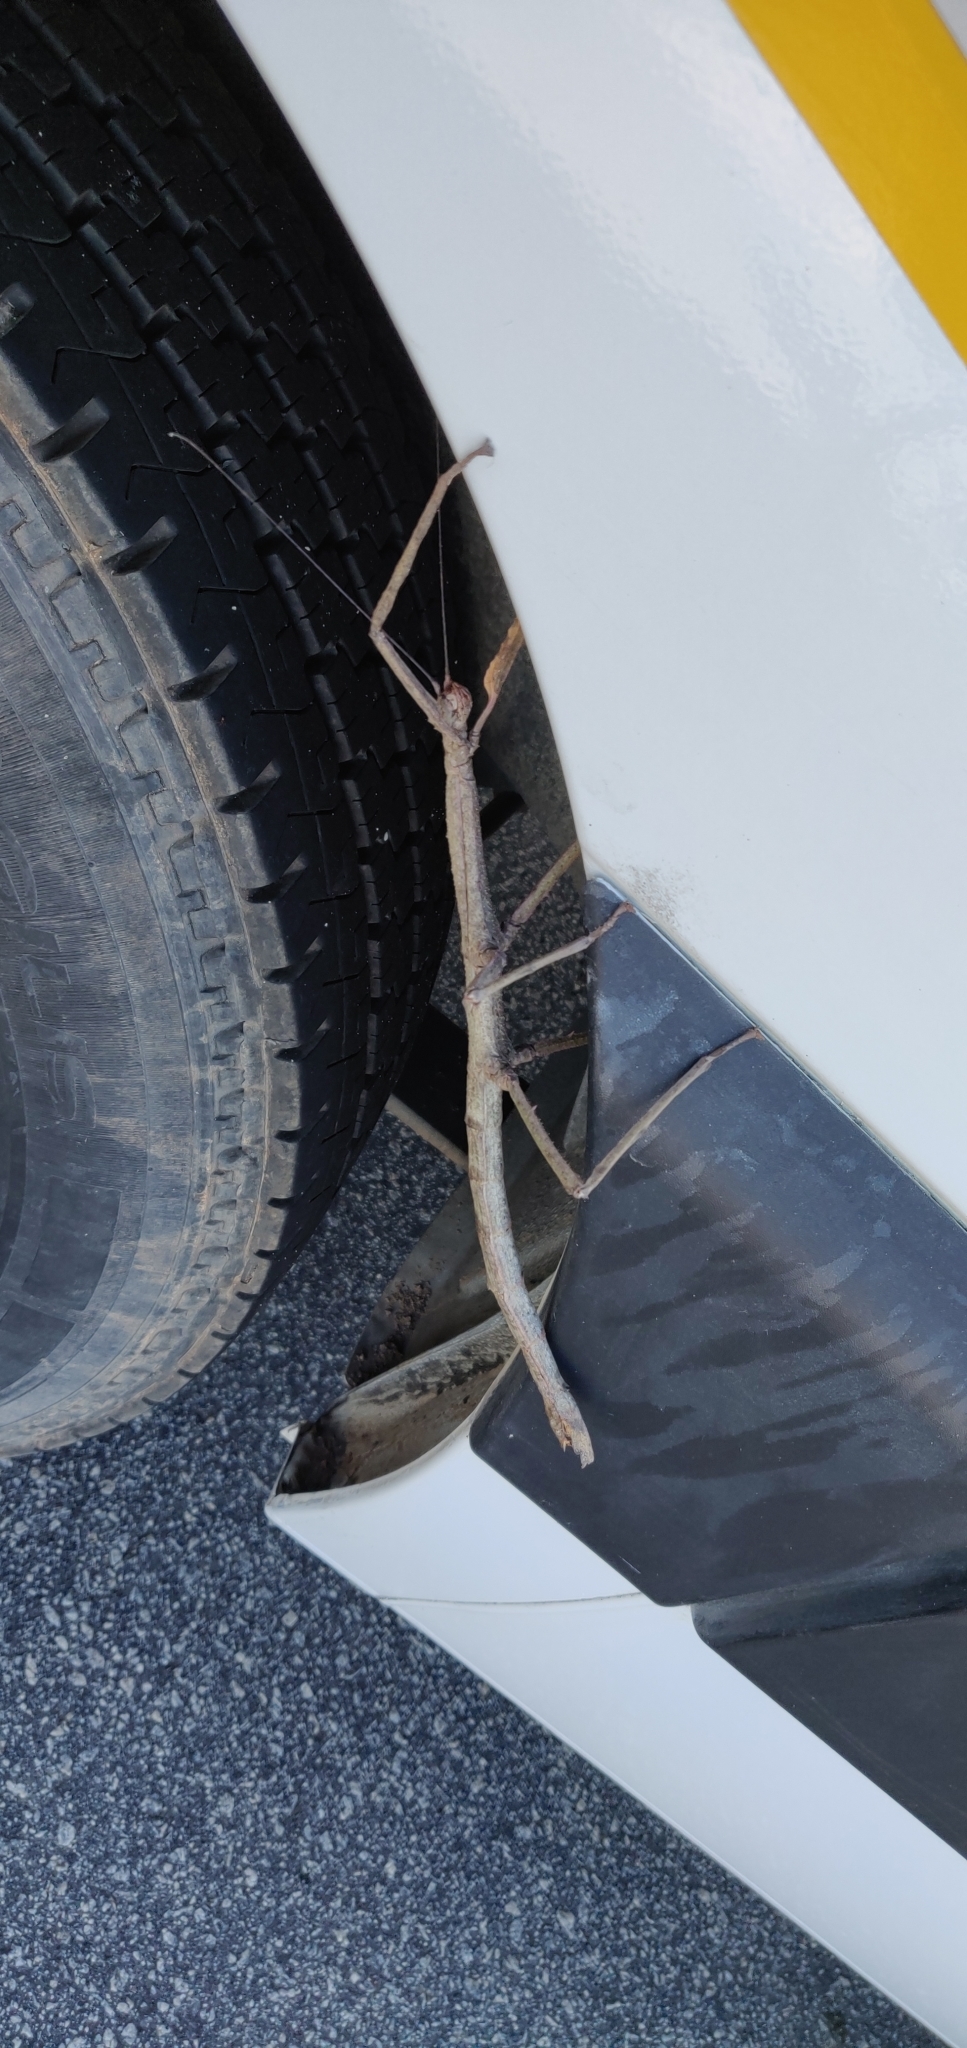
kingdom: Animalia
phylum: Arthropoda
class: Insecta
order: Phasmida
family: Phasmatidae
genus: Cladomorphus
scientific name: Cladomorphus phyllinus
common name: Brazilian giant stick insect
